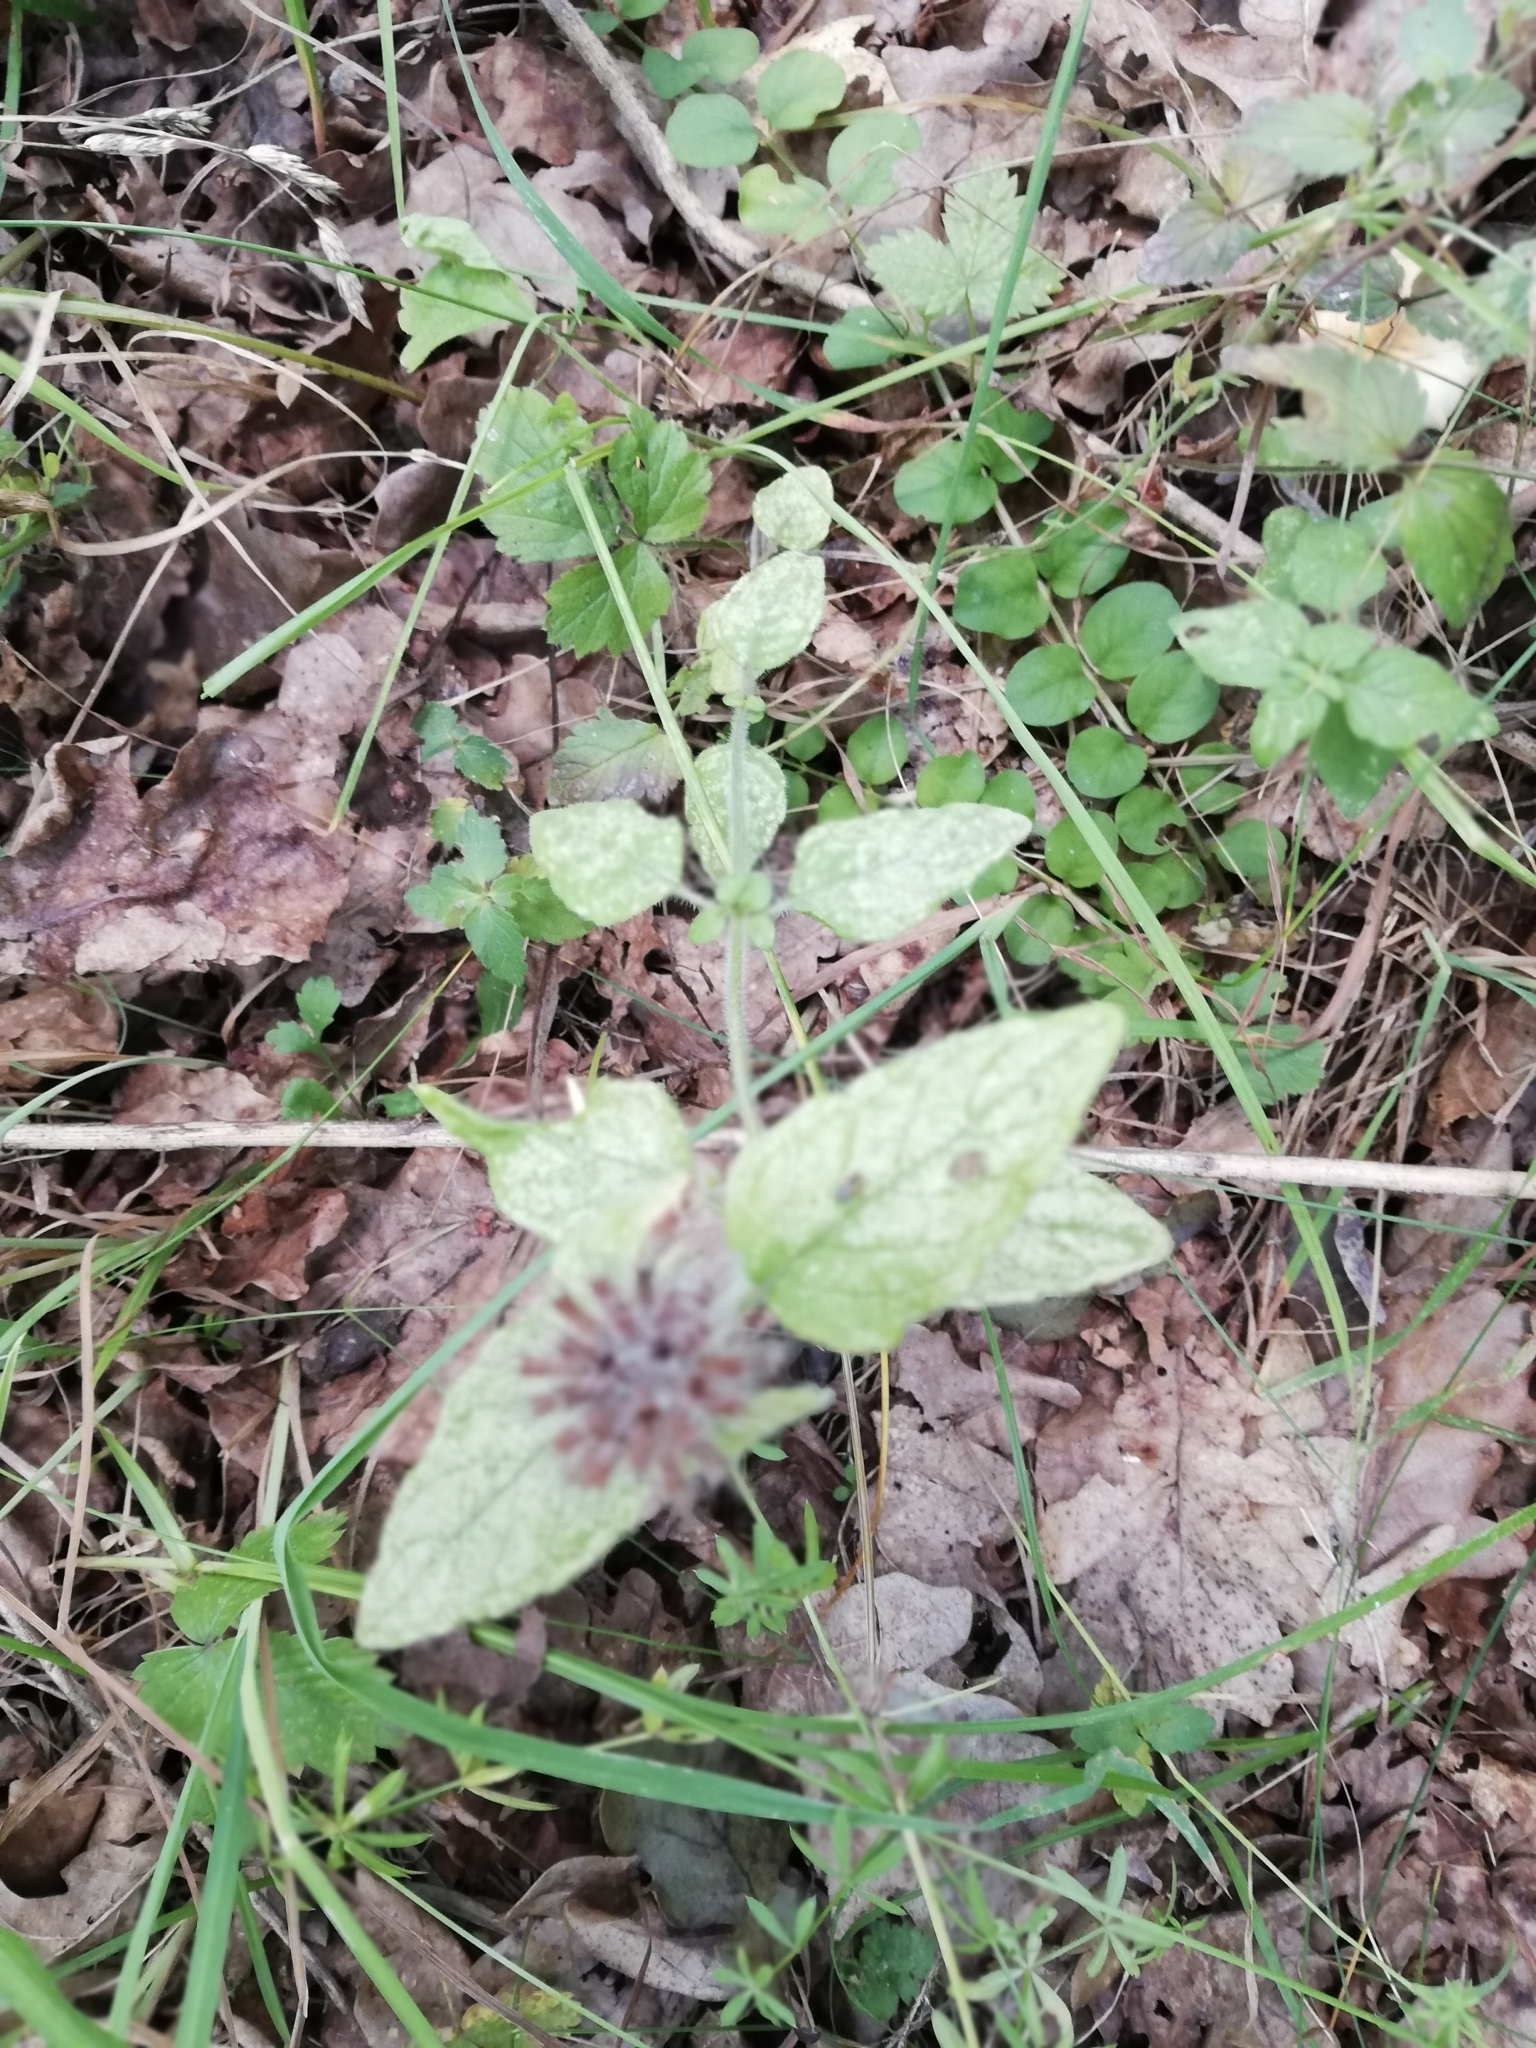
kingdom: Plantae
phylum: Tracheophyta
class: Magnoliopsida
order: Lamiales
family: Lamiaceae
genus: Clinopodium
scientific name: Clinopodium vulgare
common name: Wild basil
